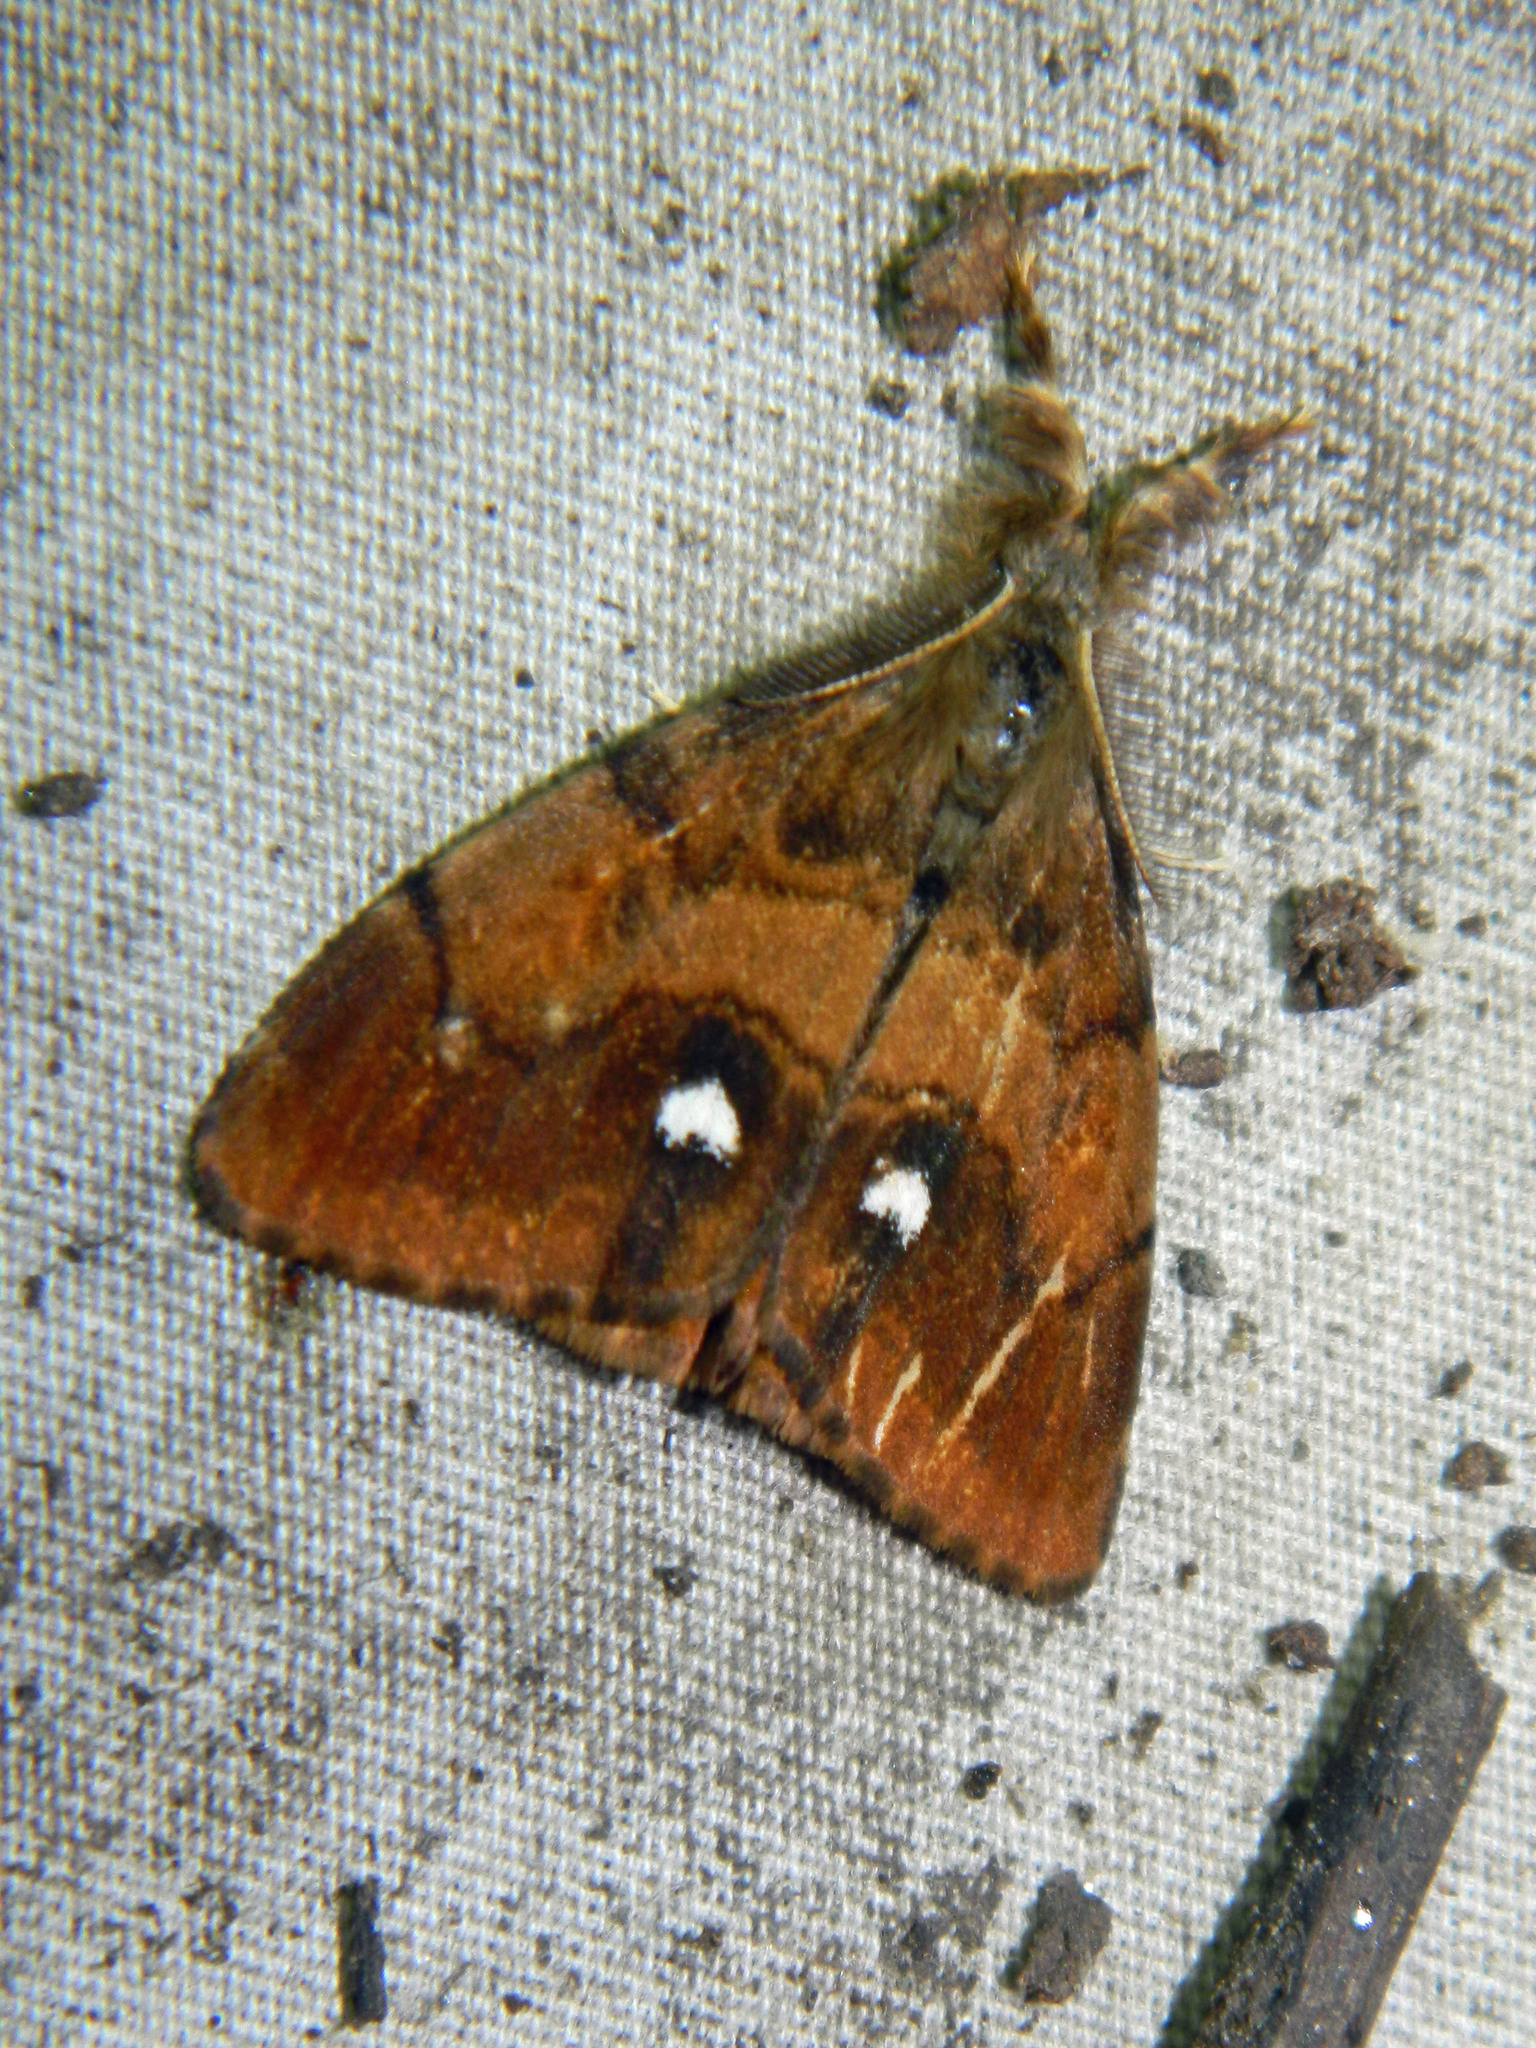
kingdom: Animalia
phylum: Arthropoda
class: Insecta
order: Lepidoptera
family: Erebidae
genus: Orgyia
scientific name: Orgyia antiqua
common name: Vapourer
